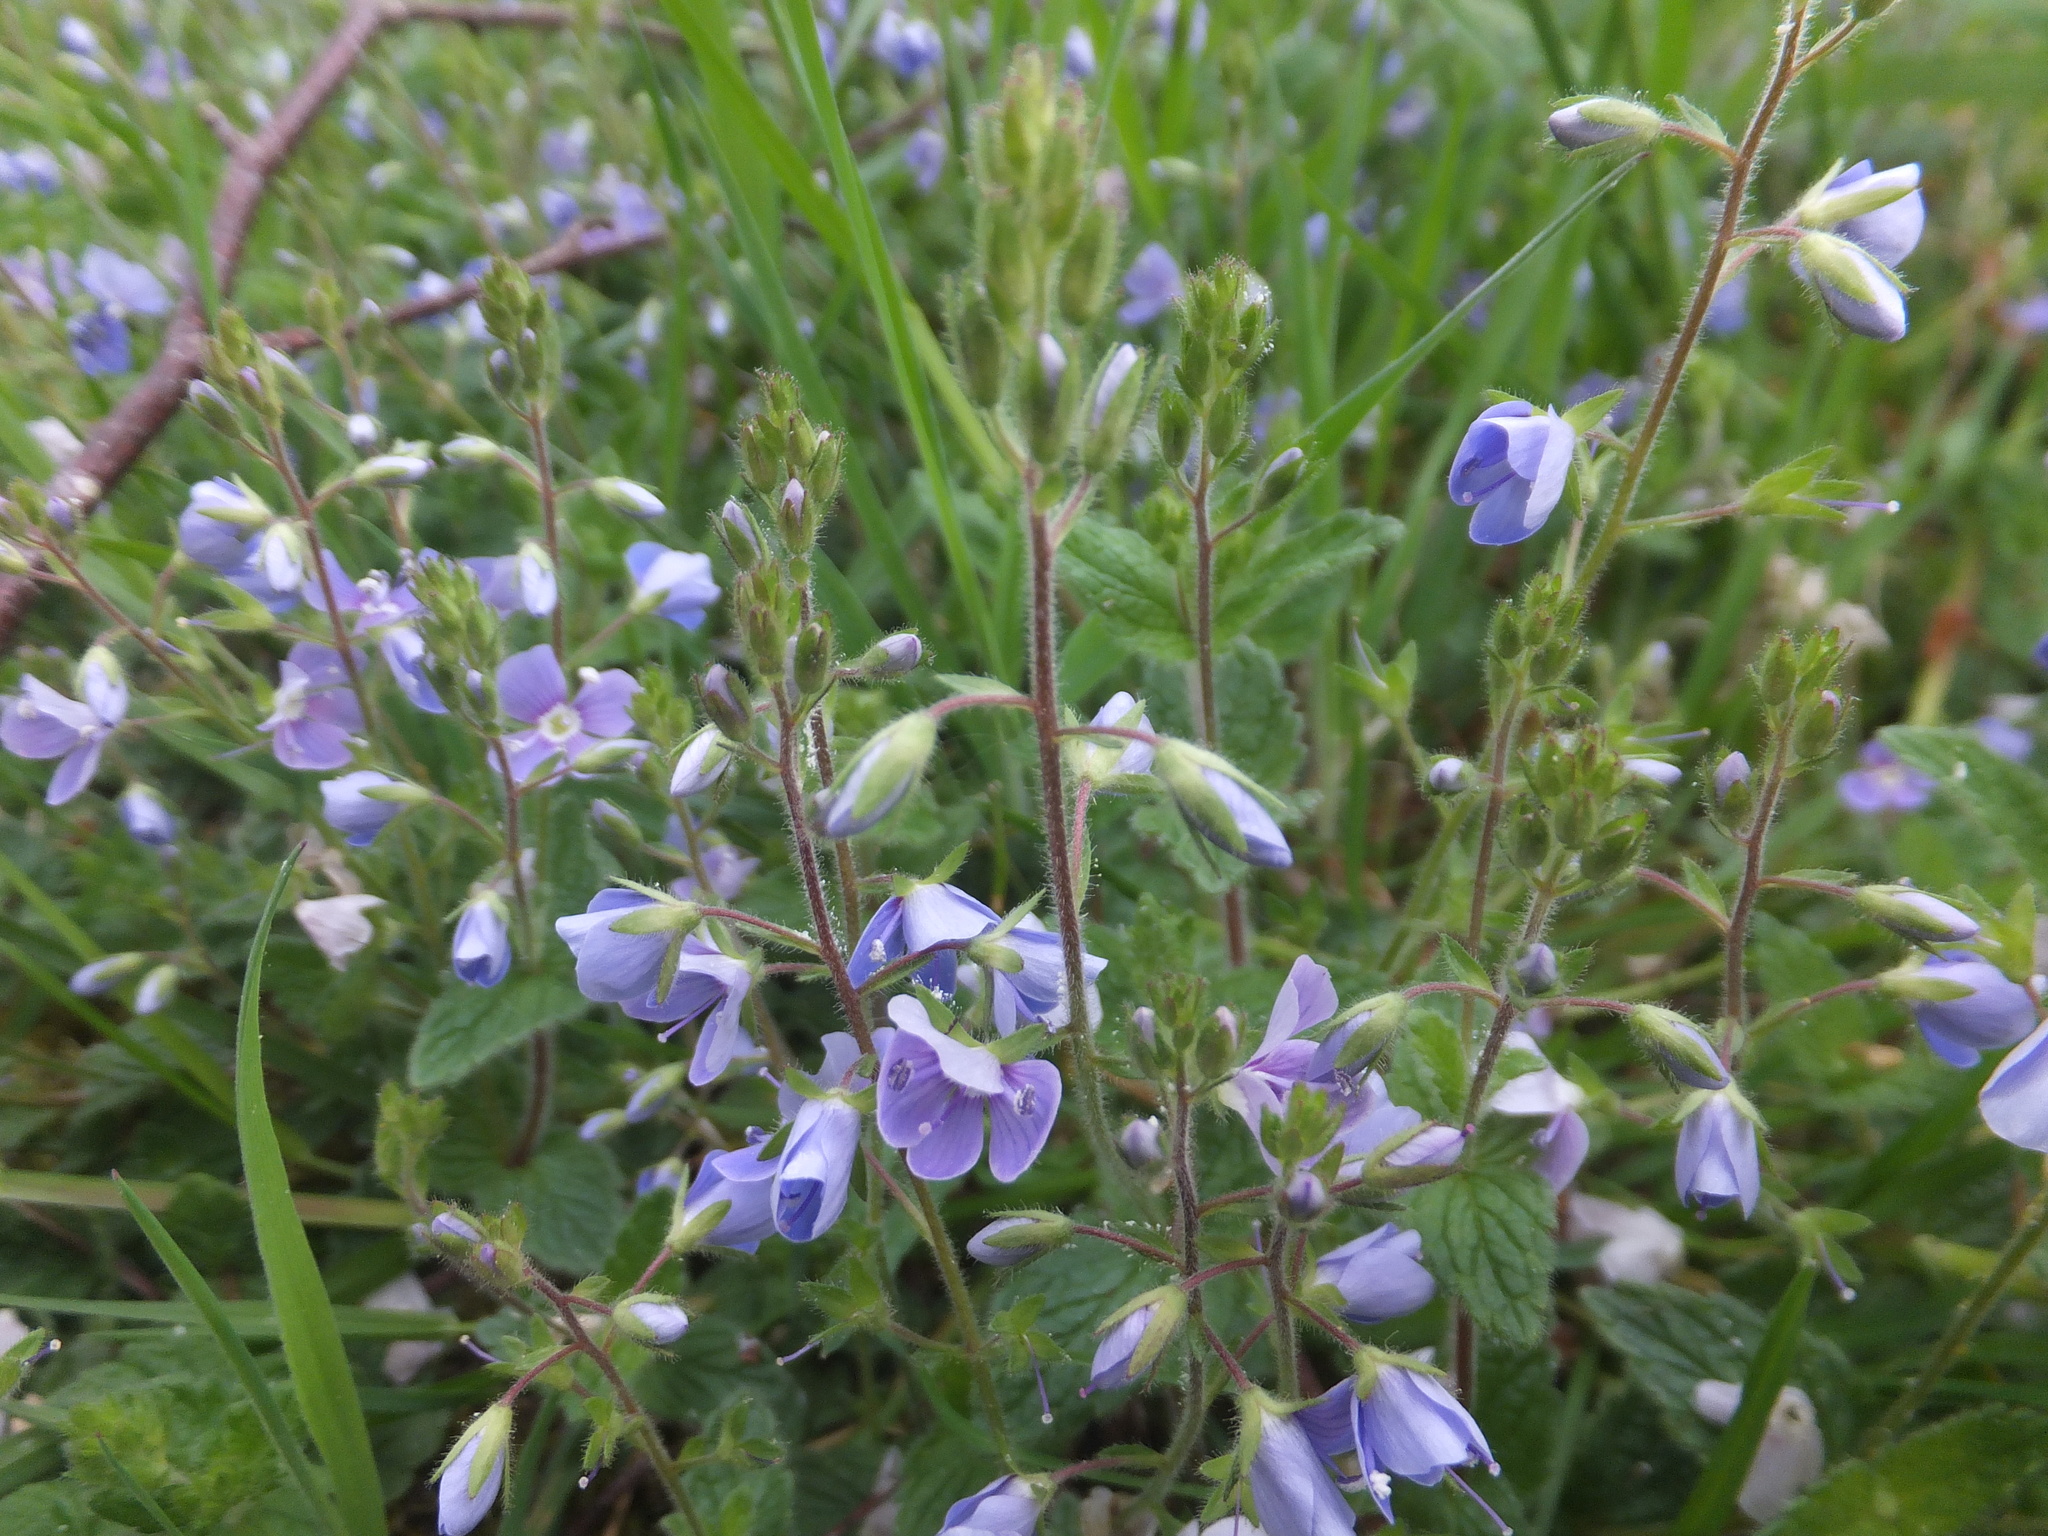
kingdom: Plantae
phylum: Tracheophyta
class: Magnoliopsida
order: Lamiales
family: Plantaginaceae
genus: Veronica
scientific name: Veronica chamaedrys
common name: Germander speedwell
